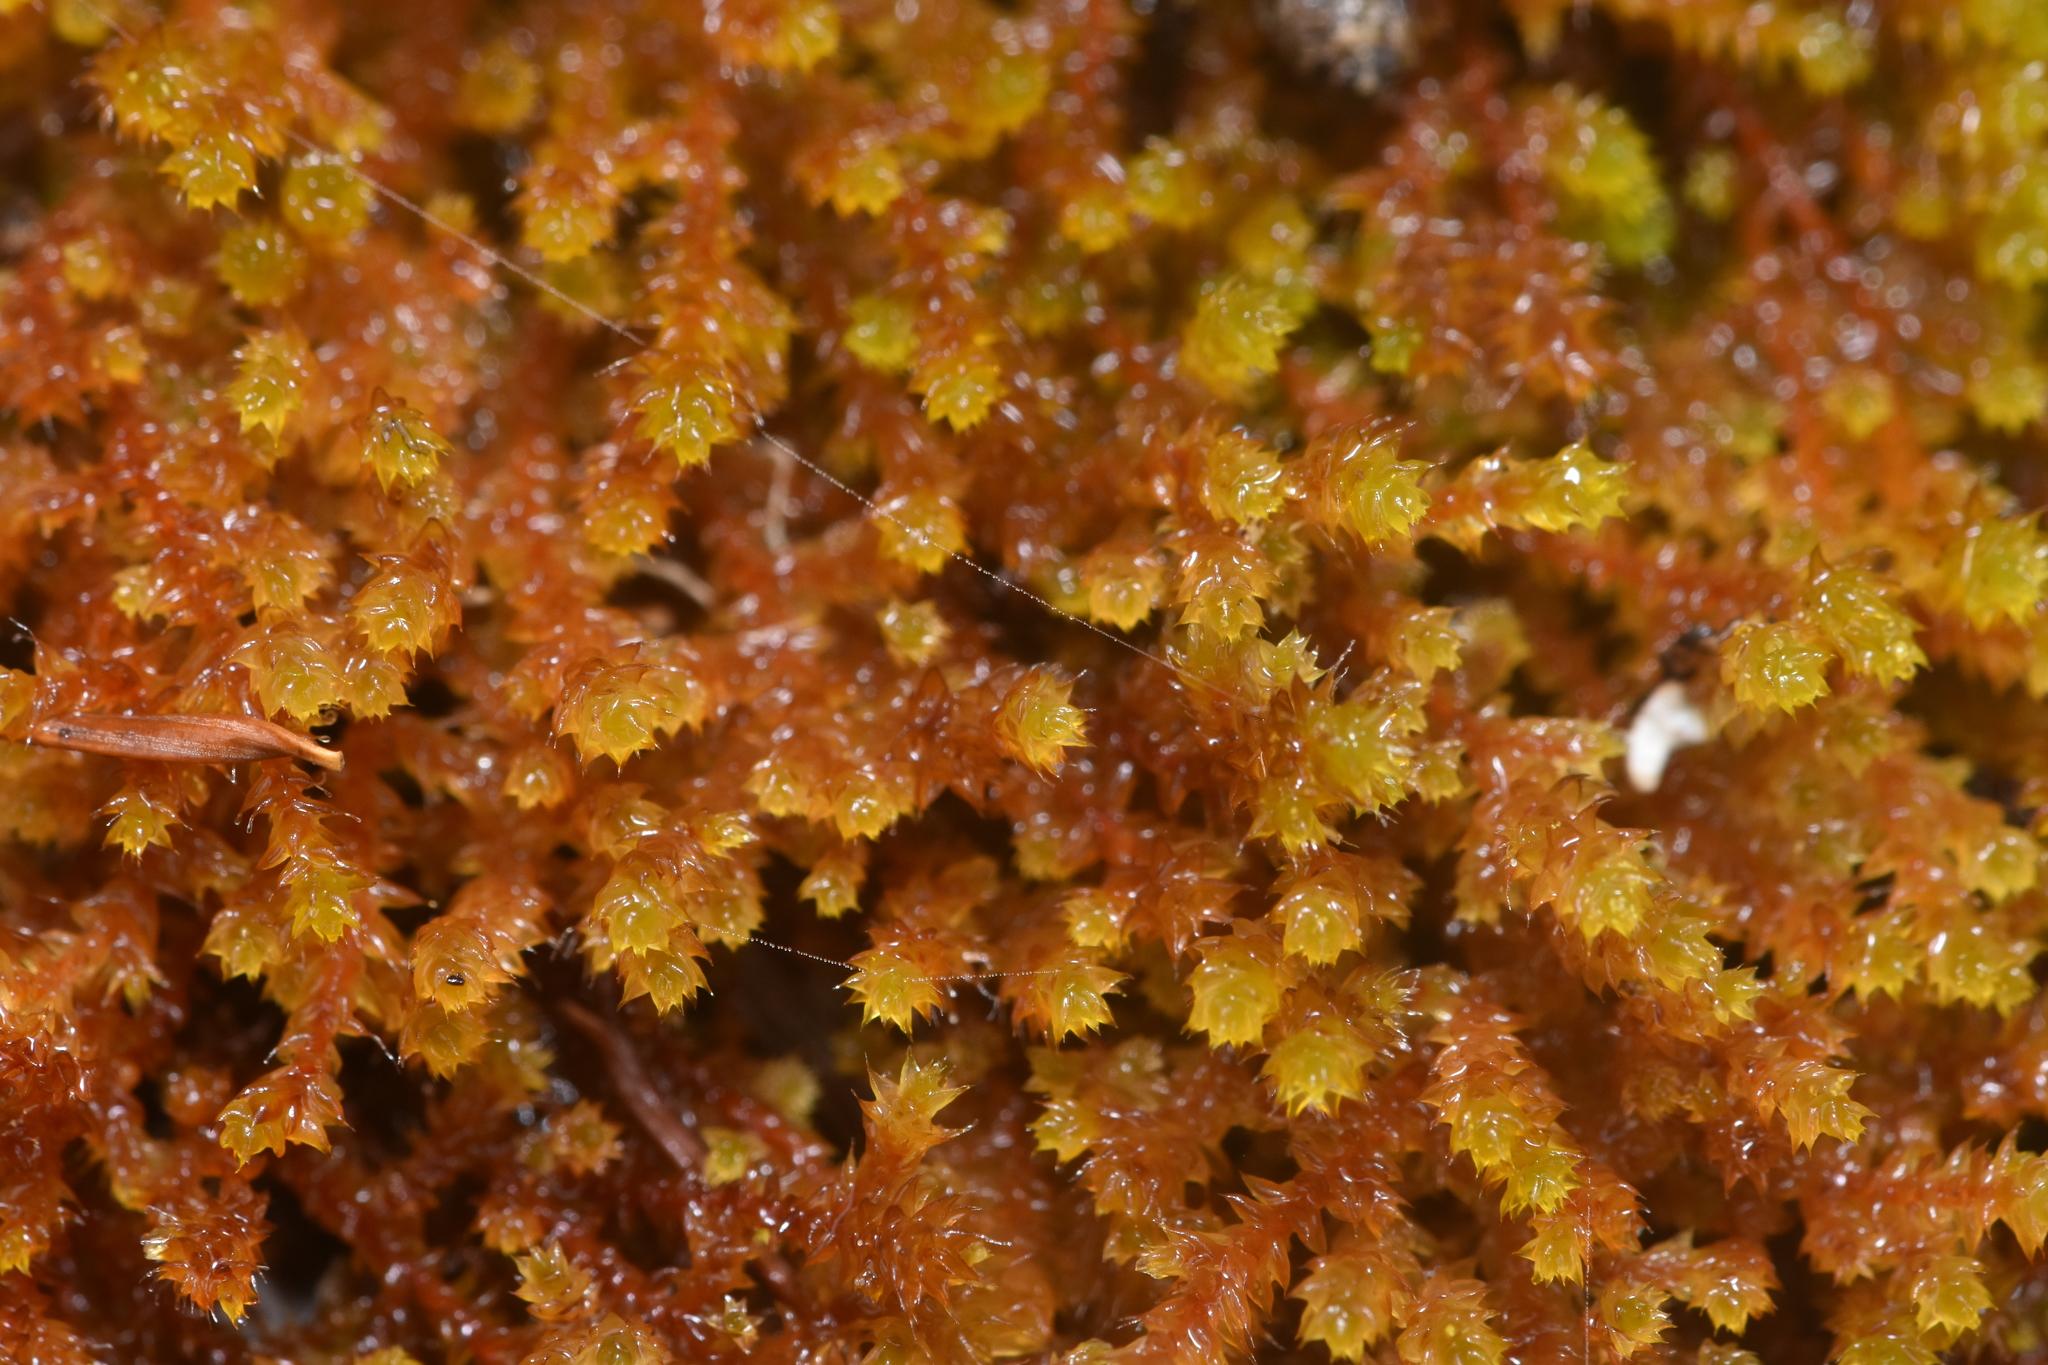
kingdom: Plantae
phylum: Bryophyta
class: Bryopsida
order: Hedwigiales
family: Hedwigiaceae
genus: Pseudobraunia
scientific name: Pseudobraunia californica
